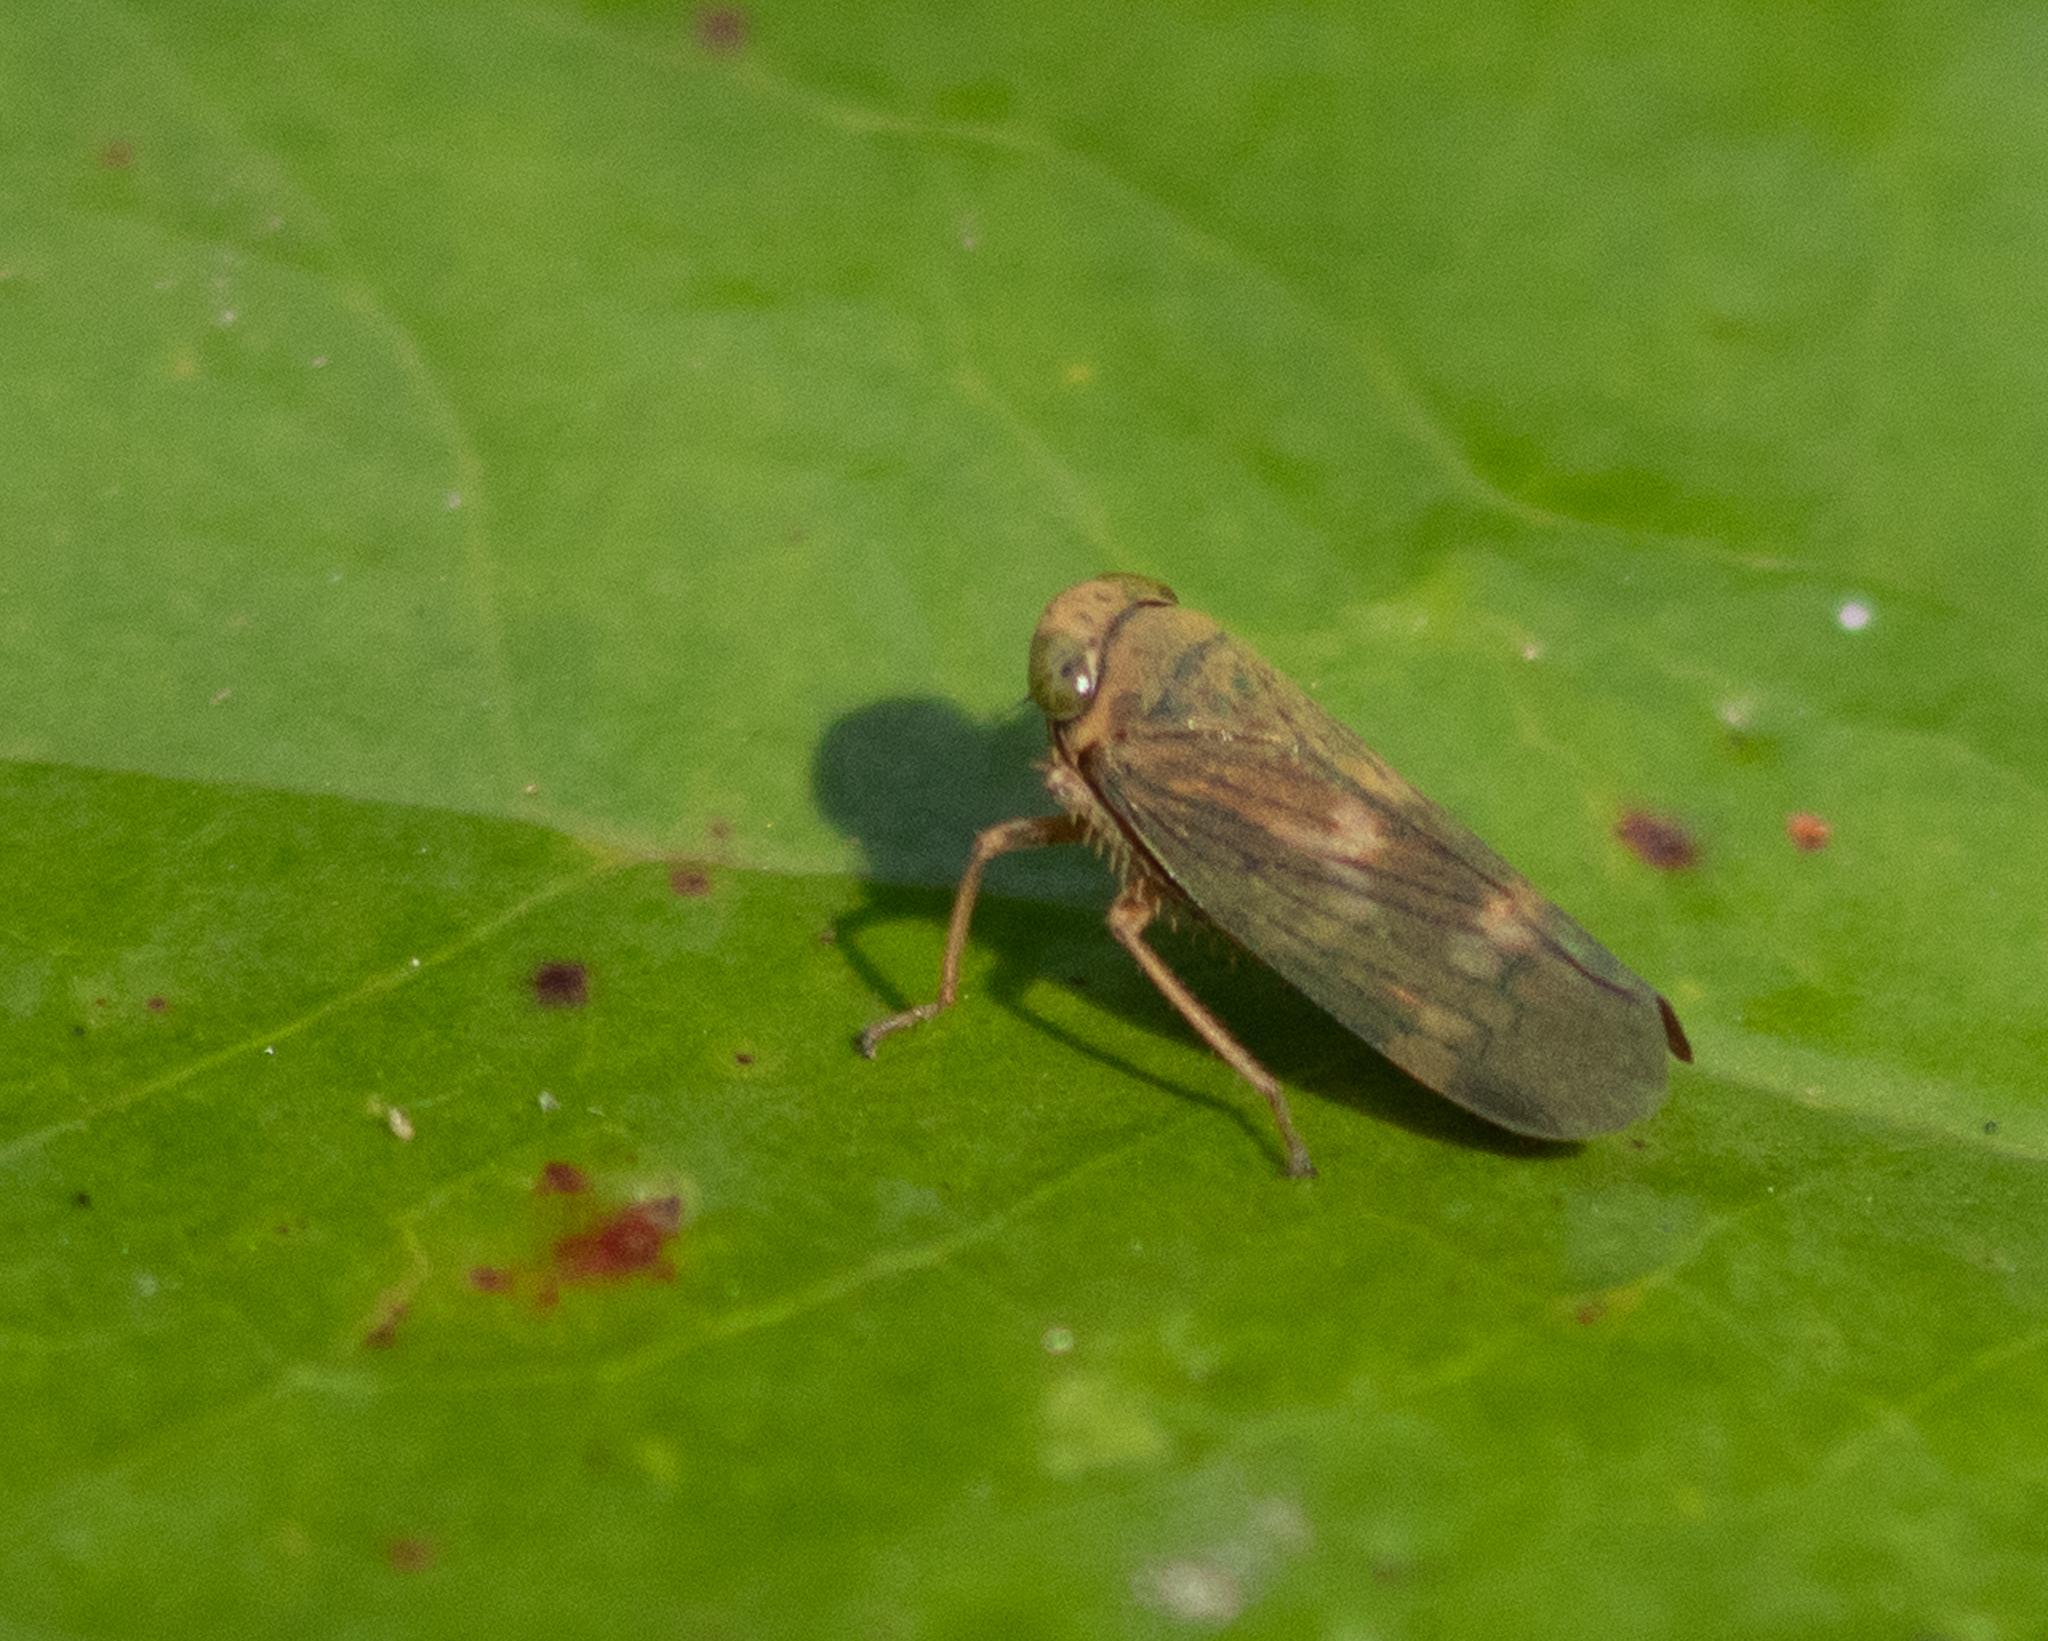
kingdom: Animalia
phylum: Arthropoda
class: Insecta
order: Hemiptera
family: Cicadellidae
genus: Jikradia
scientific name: Jikradia olitoria
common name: Coppery leafhopper
